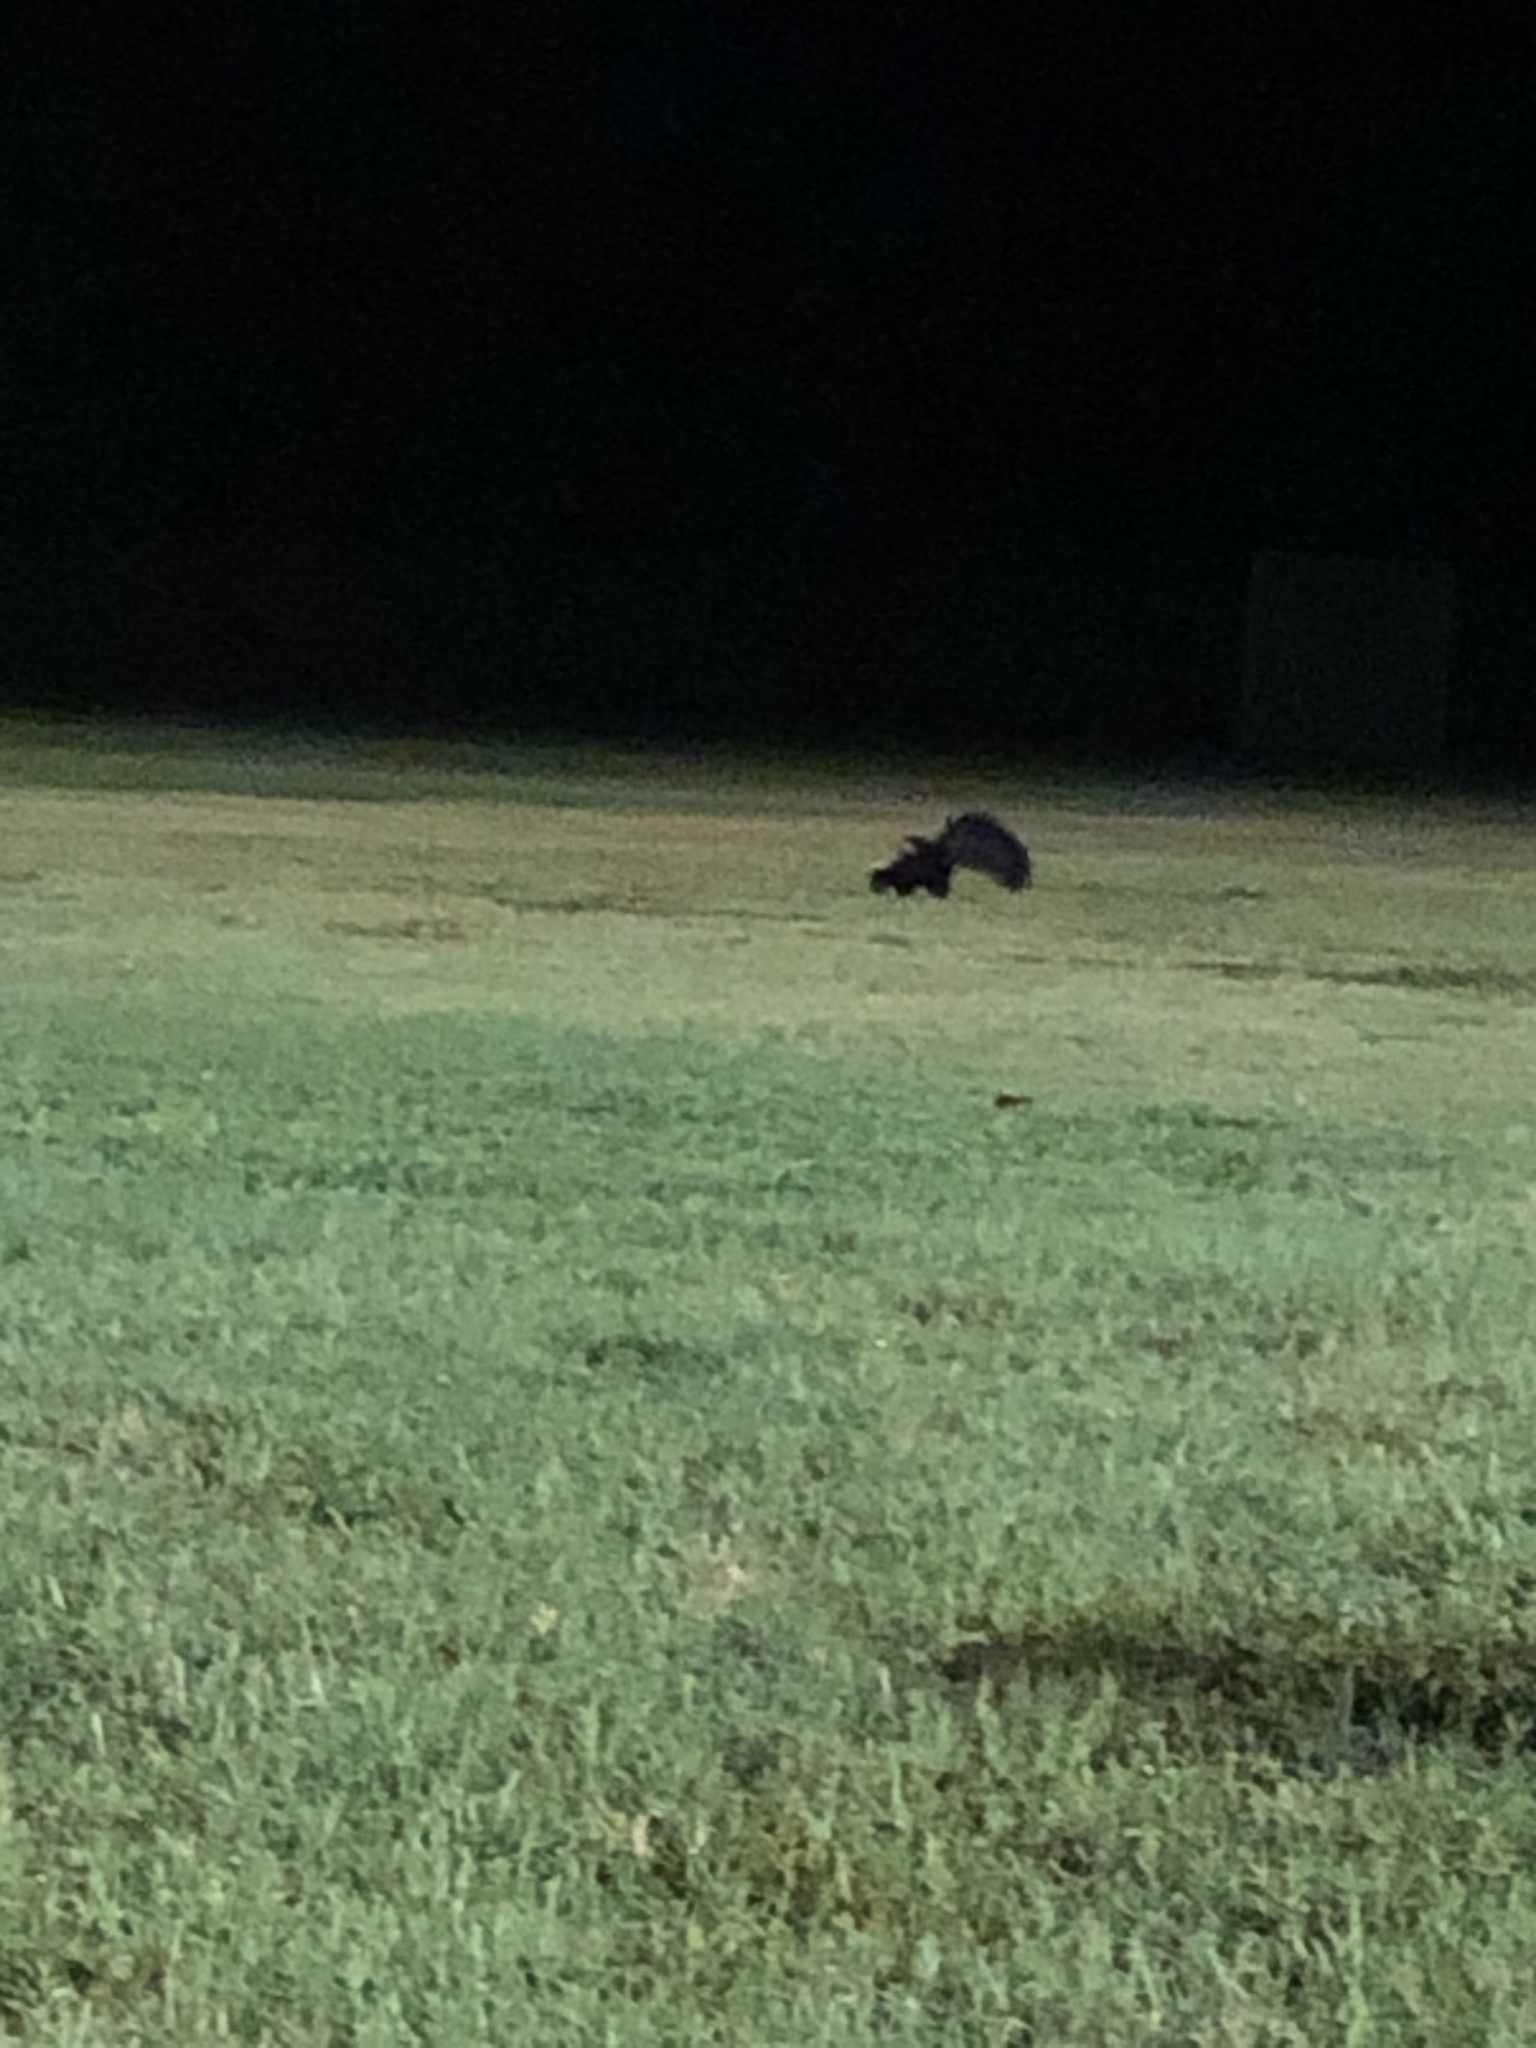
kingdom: Animalia
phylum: Chordata
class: Mammalia
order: Carnivora
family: Mephitidae
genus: Mephitis
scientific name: Mephitis mephitis
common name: Striped skunk
